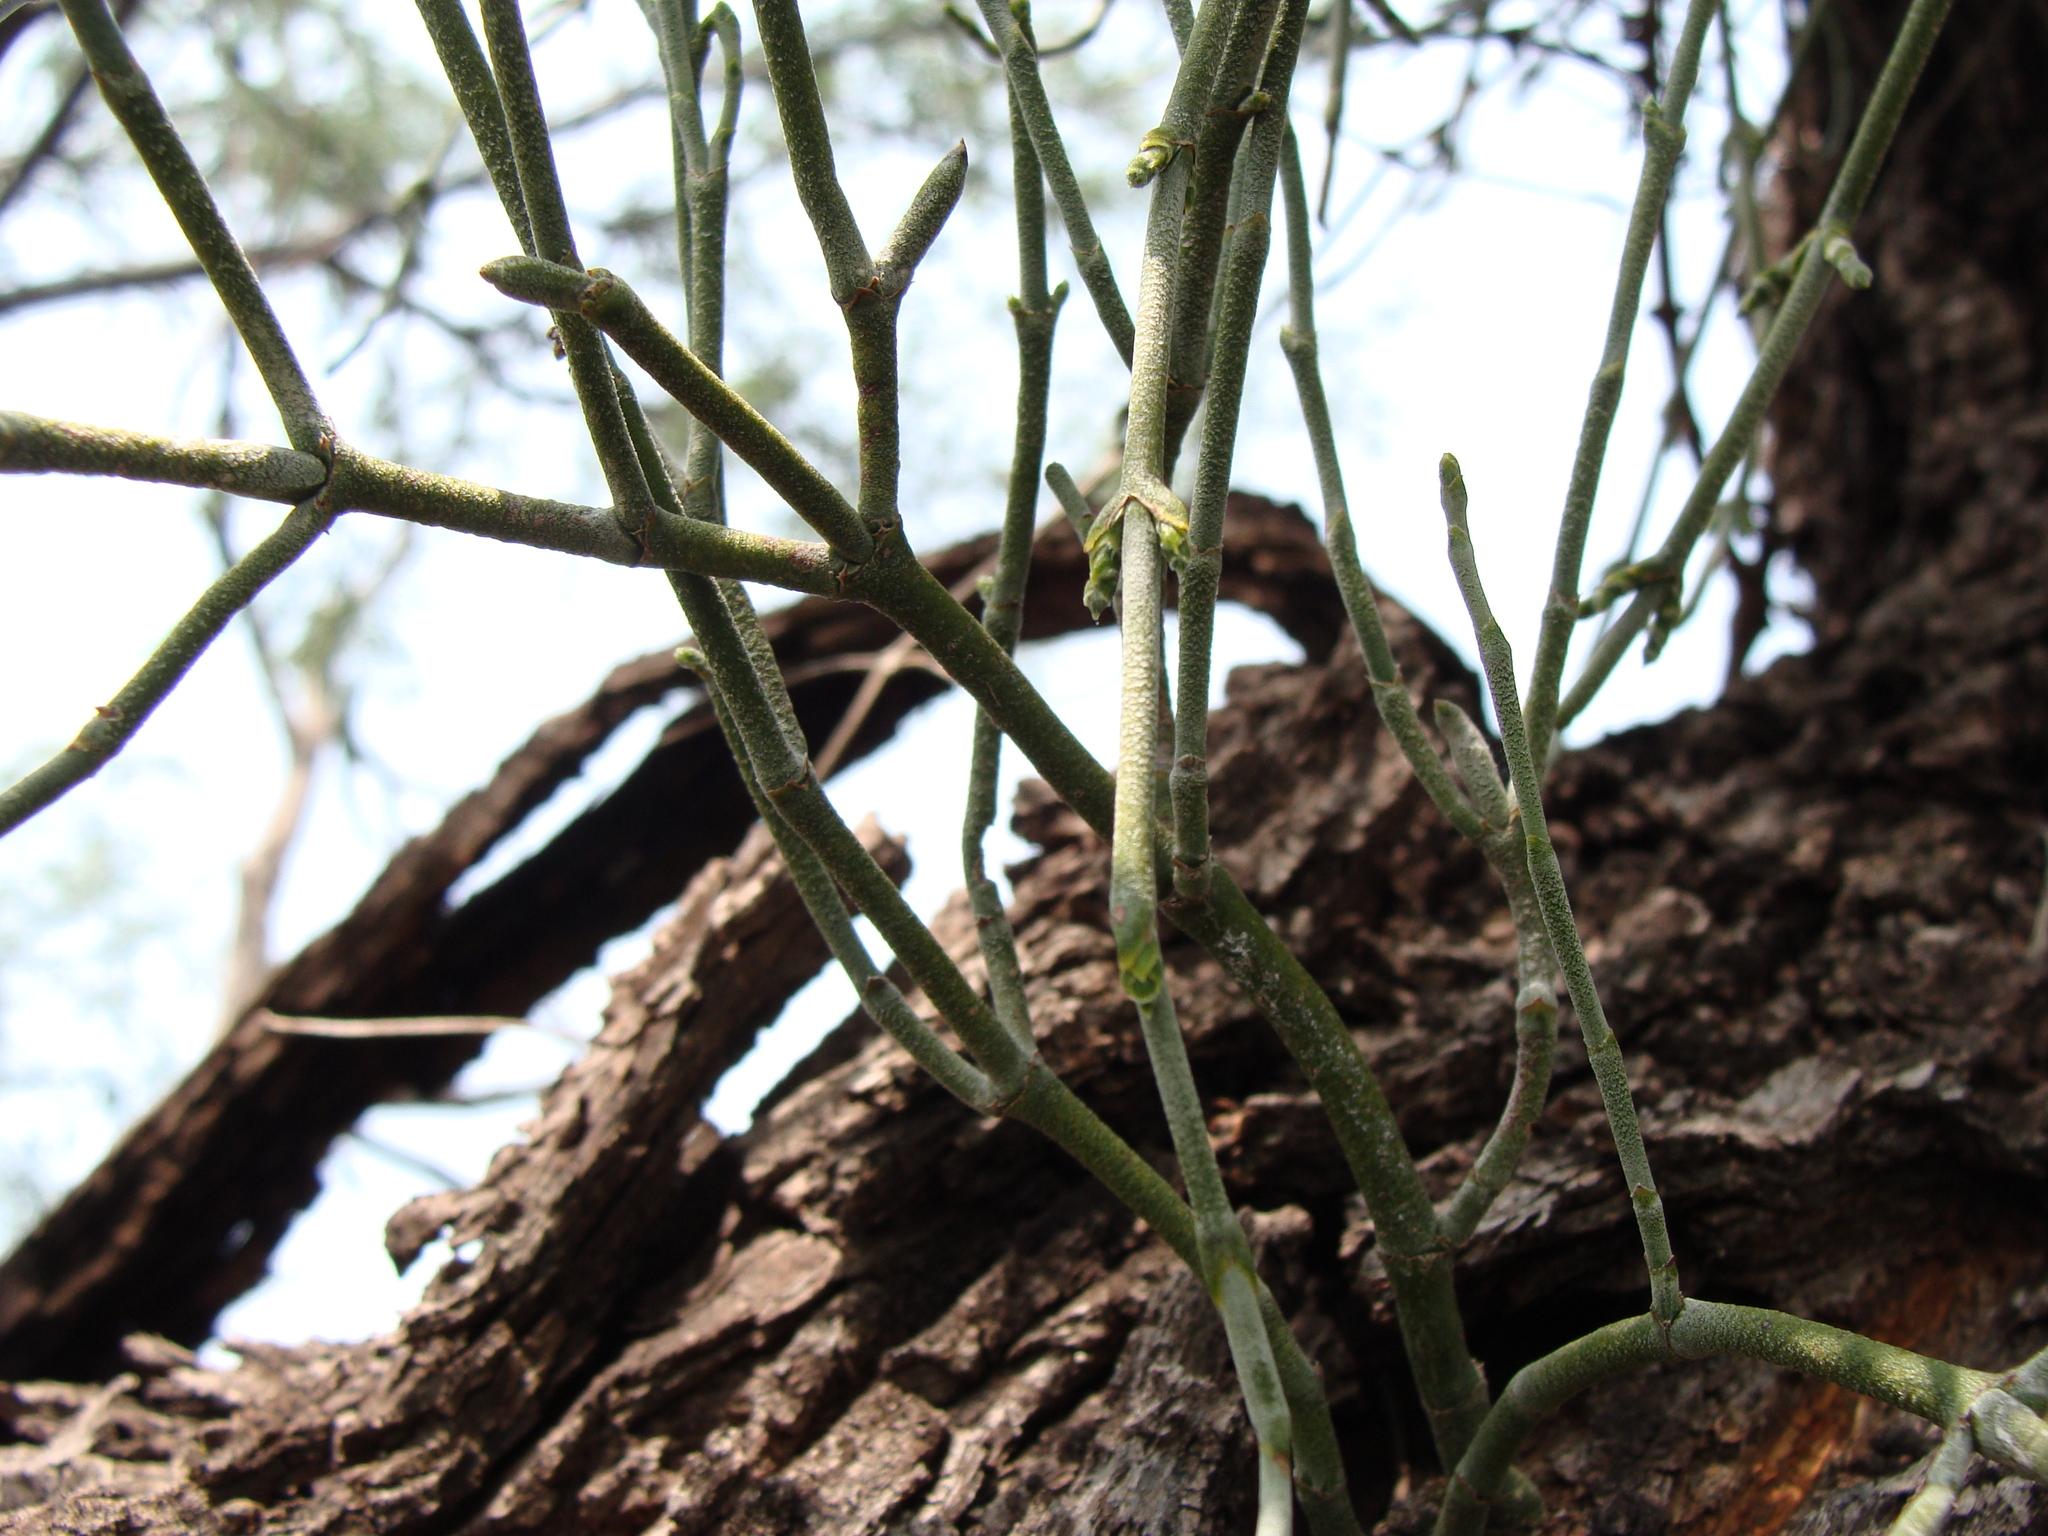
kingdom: Plantae
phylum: Tracheophyta
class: Magnoliopsida
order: Santalales
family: Viscaceae
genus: Phoradendron
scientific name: Phoradendron californicum
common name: Acacia mistletoe
